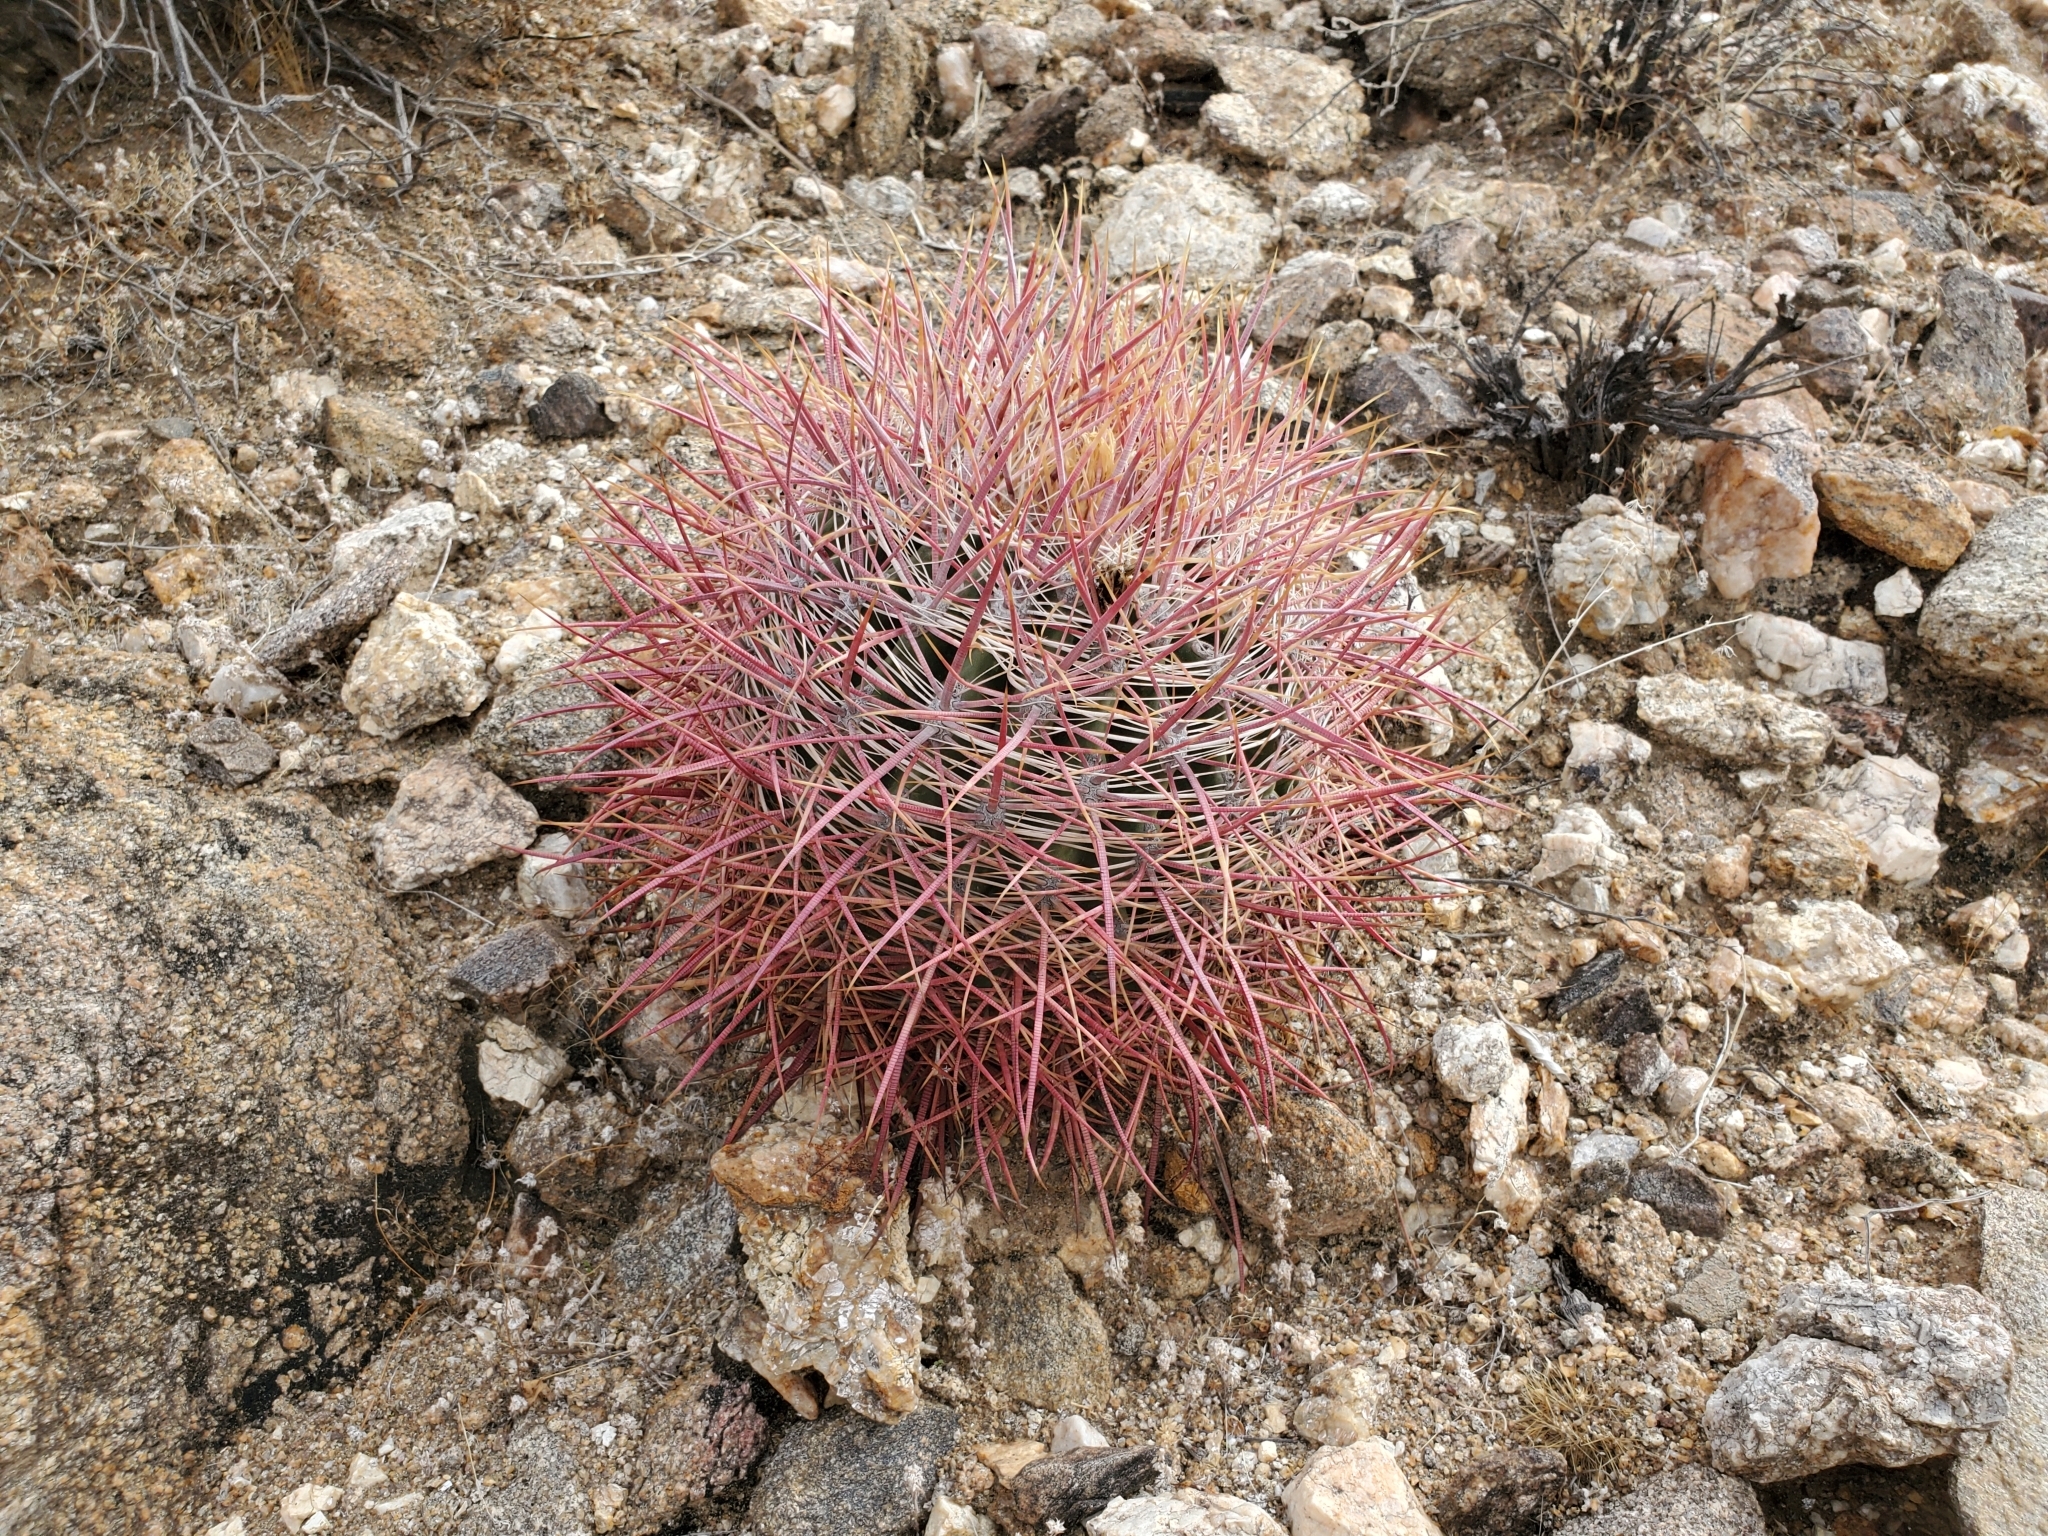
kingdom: Plantae
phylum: Tracheophyta
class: Magnoliopsida
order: Caryophyllales
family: Cactaceae
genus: Ferocactus
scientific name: Ferocactus cylindraceus
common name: California barrel cactus
